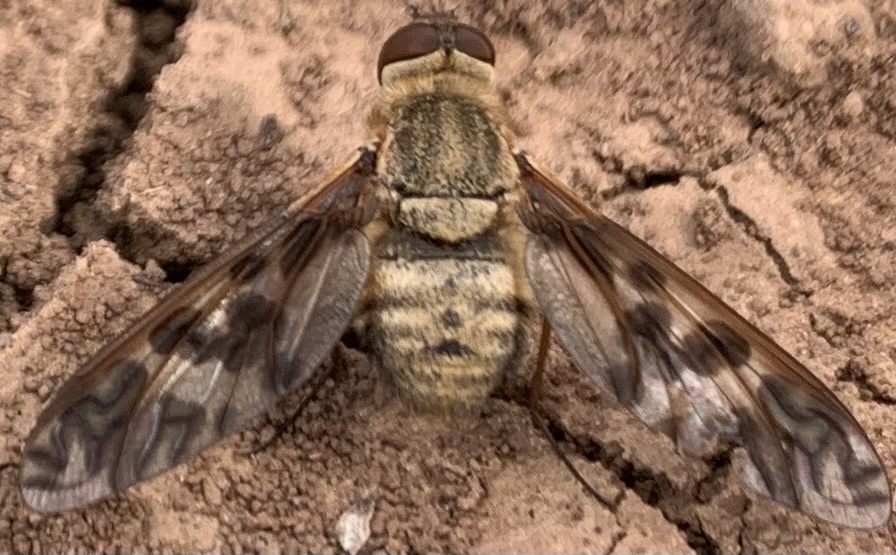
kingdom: Animalia
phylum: Arthropoda
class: Insecta
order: Diptera
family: Bombyliidae
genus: Dipalta
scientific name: Dipalta serpentina
